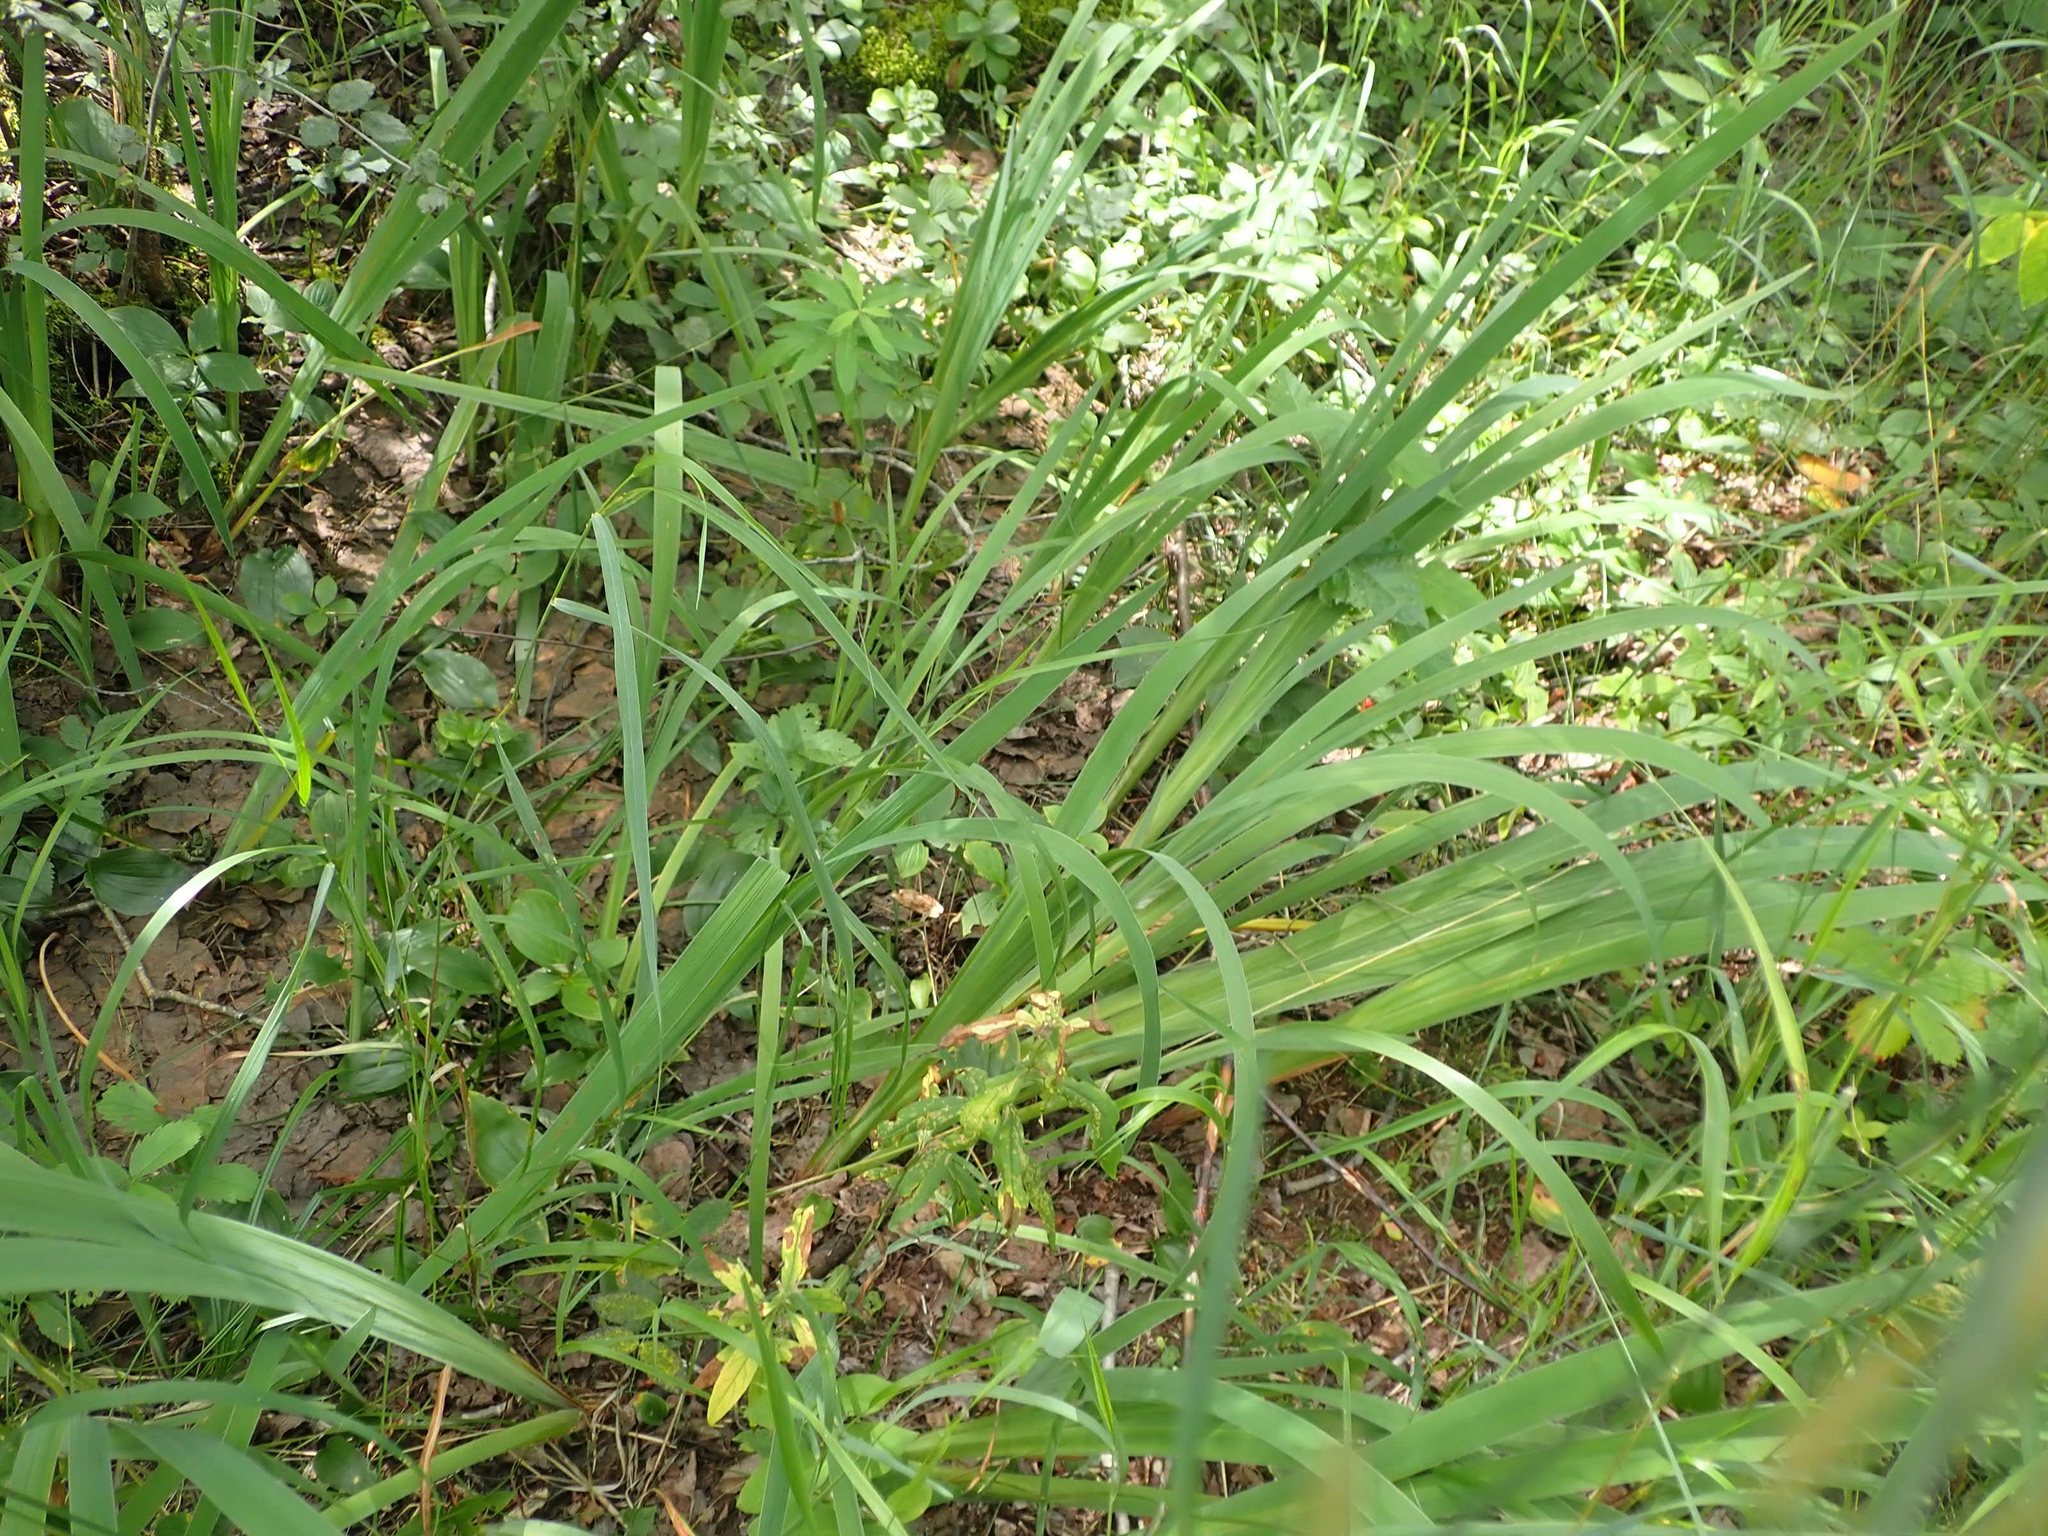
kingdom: Plantae
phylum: Tracheophyta
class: Liliopsida
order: Asparagales
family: Iridaceae
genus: Iris
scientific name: Iris versicolor
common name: Purple iris
